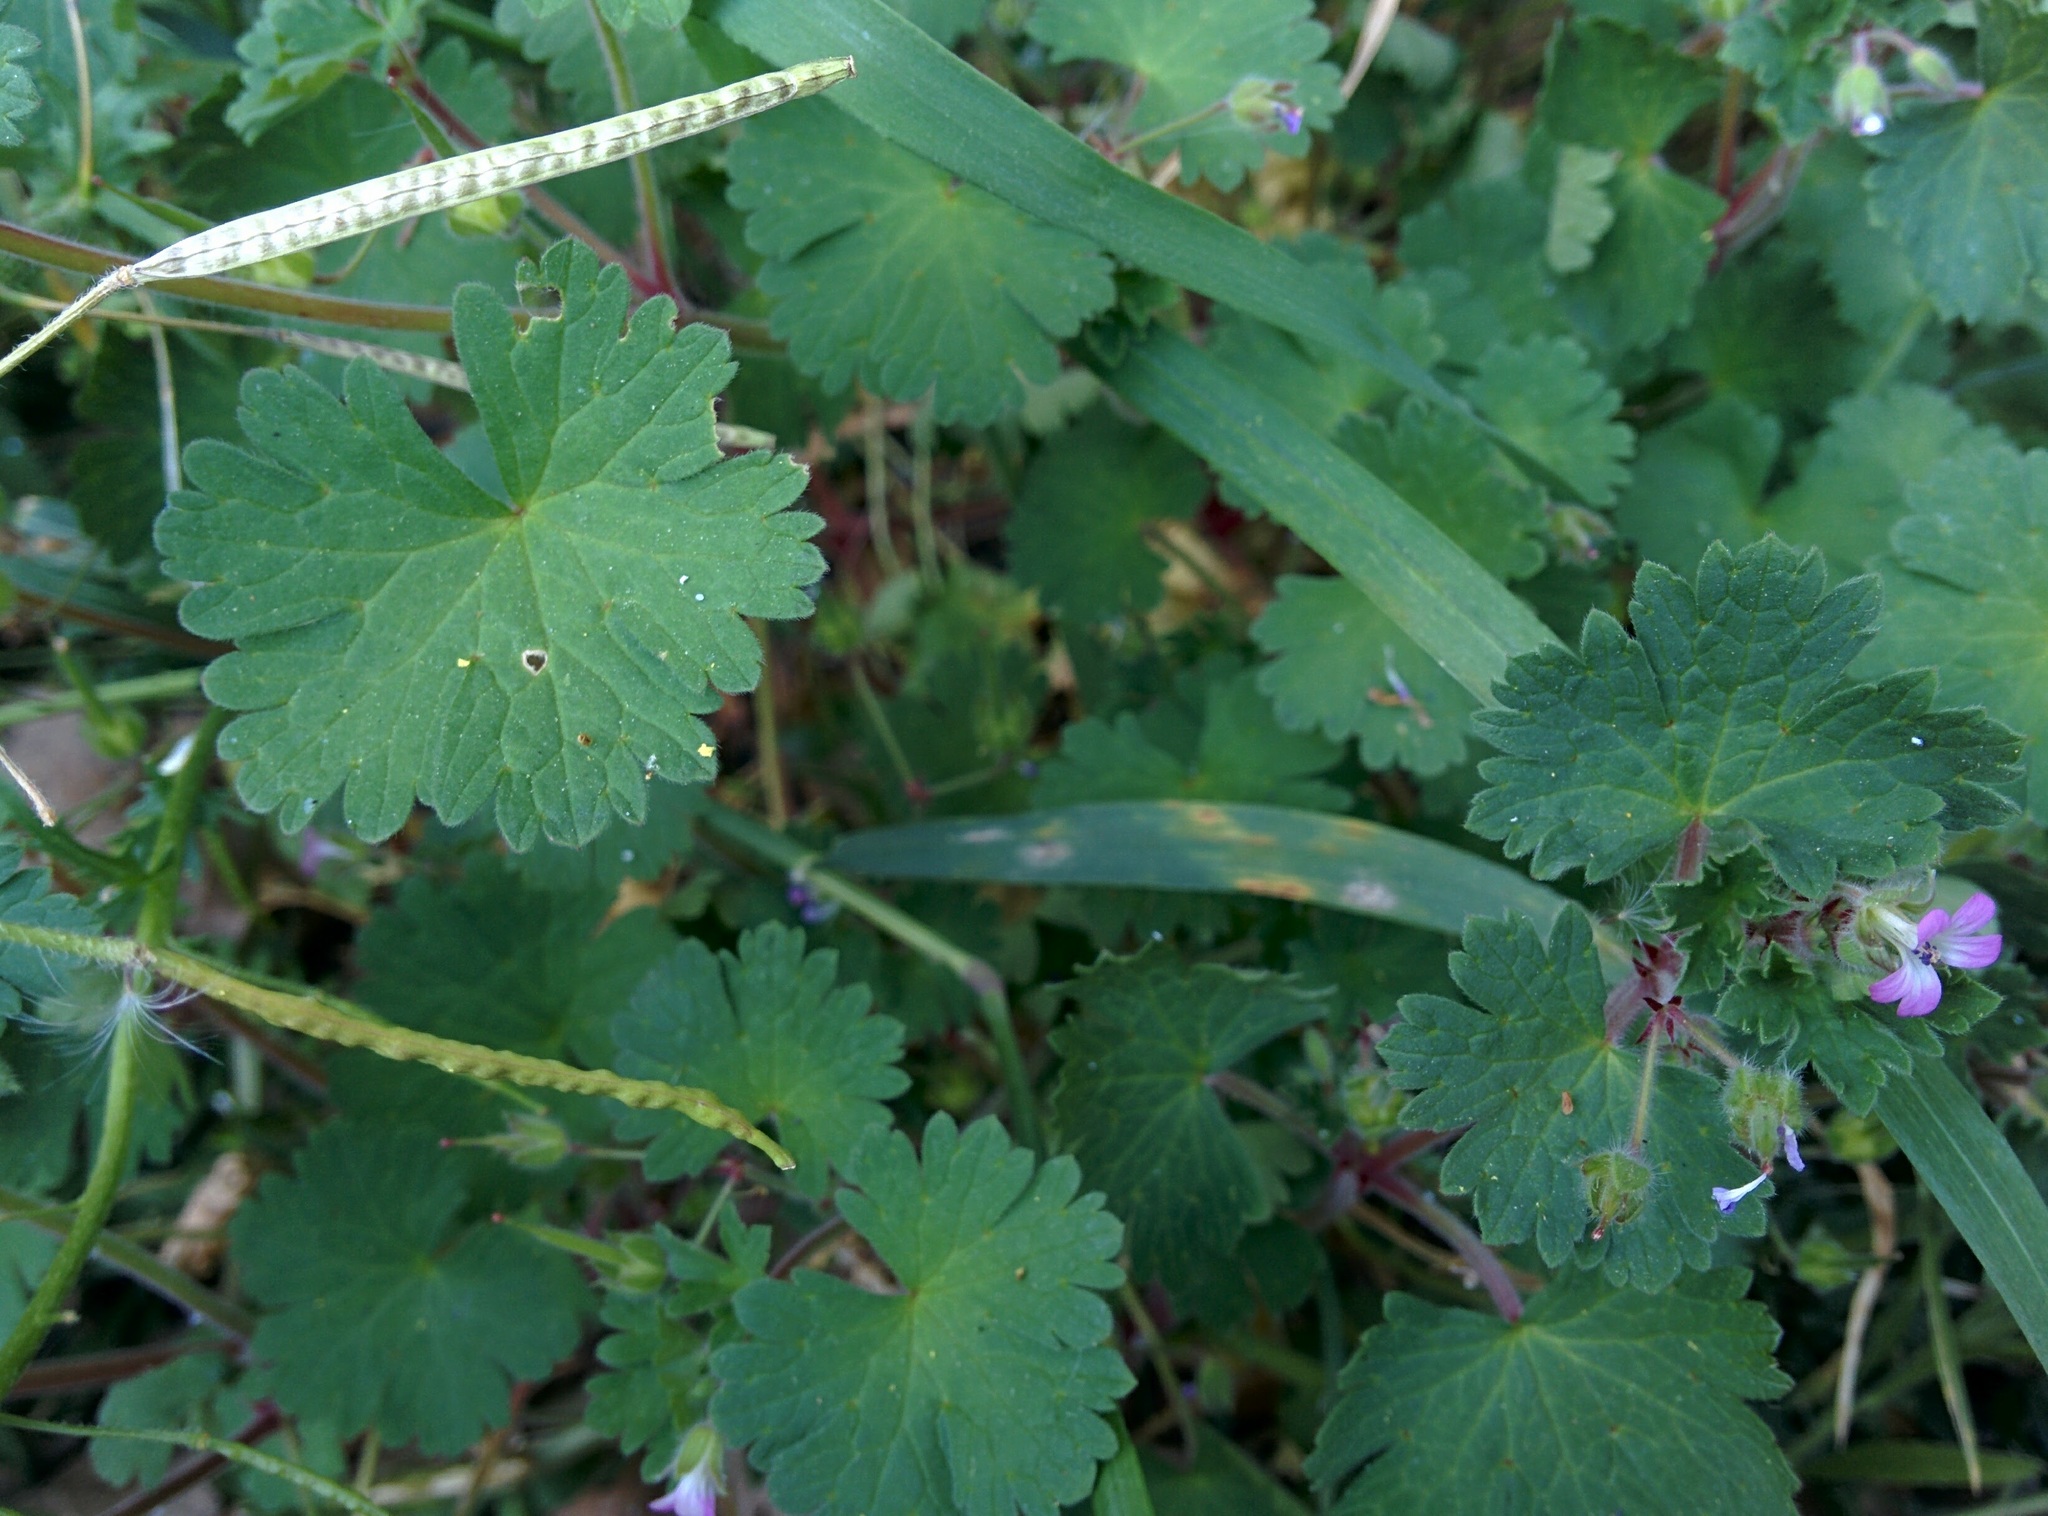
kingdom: Plantae
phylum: Tracheophyta
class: Magnoliopsida
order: Geraniales
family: Geraniaceae
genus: Geranium
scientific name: Geranium rotundifolium
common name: Round-leaved crane's-bill
